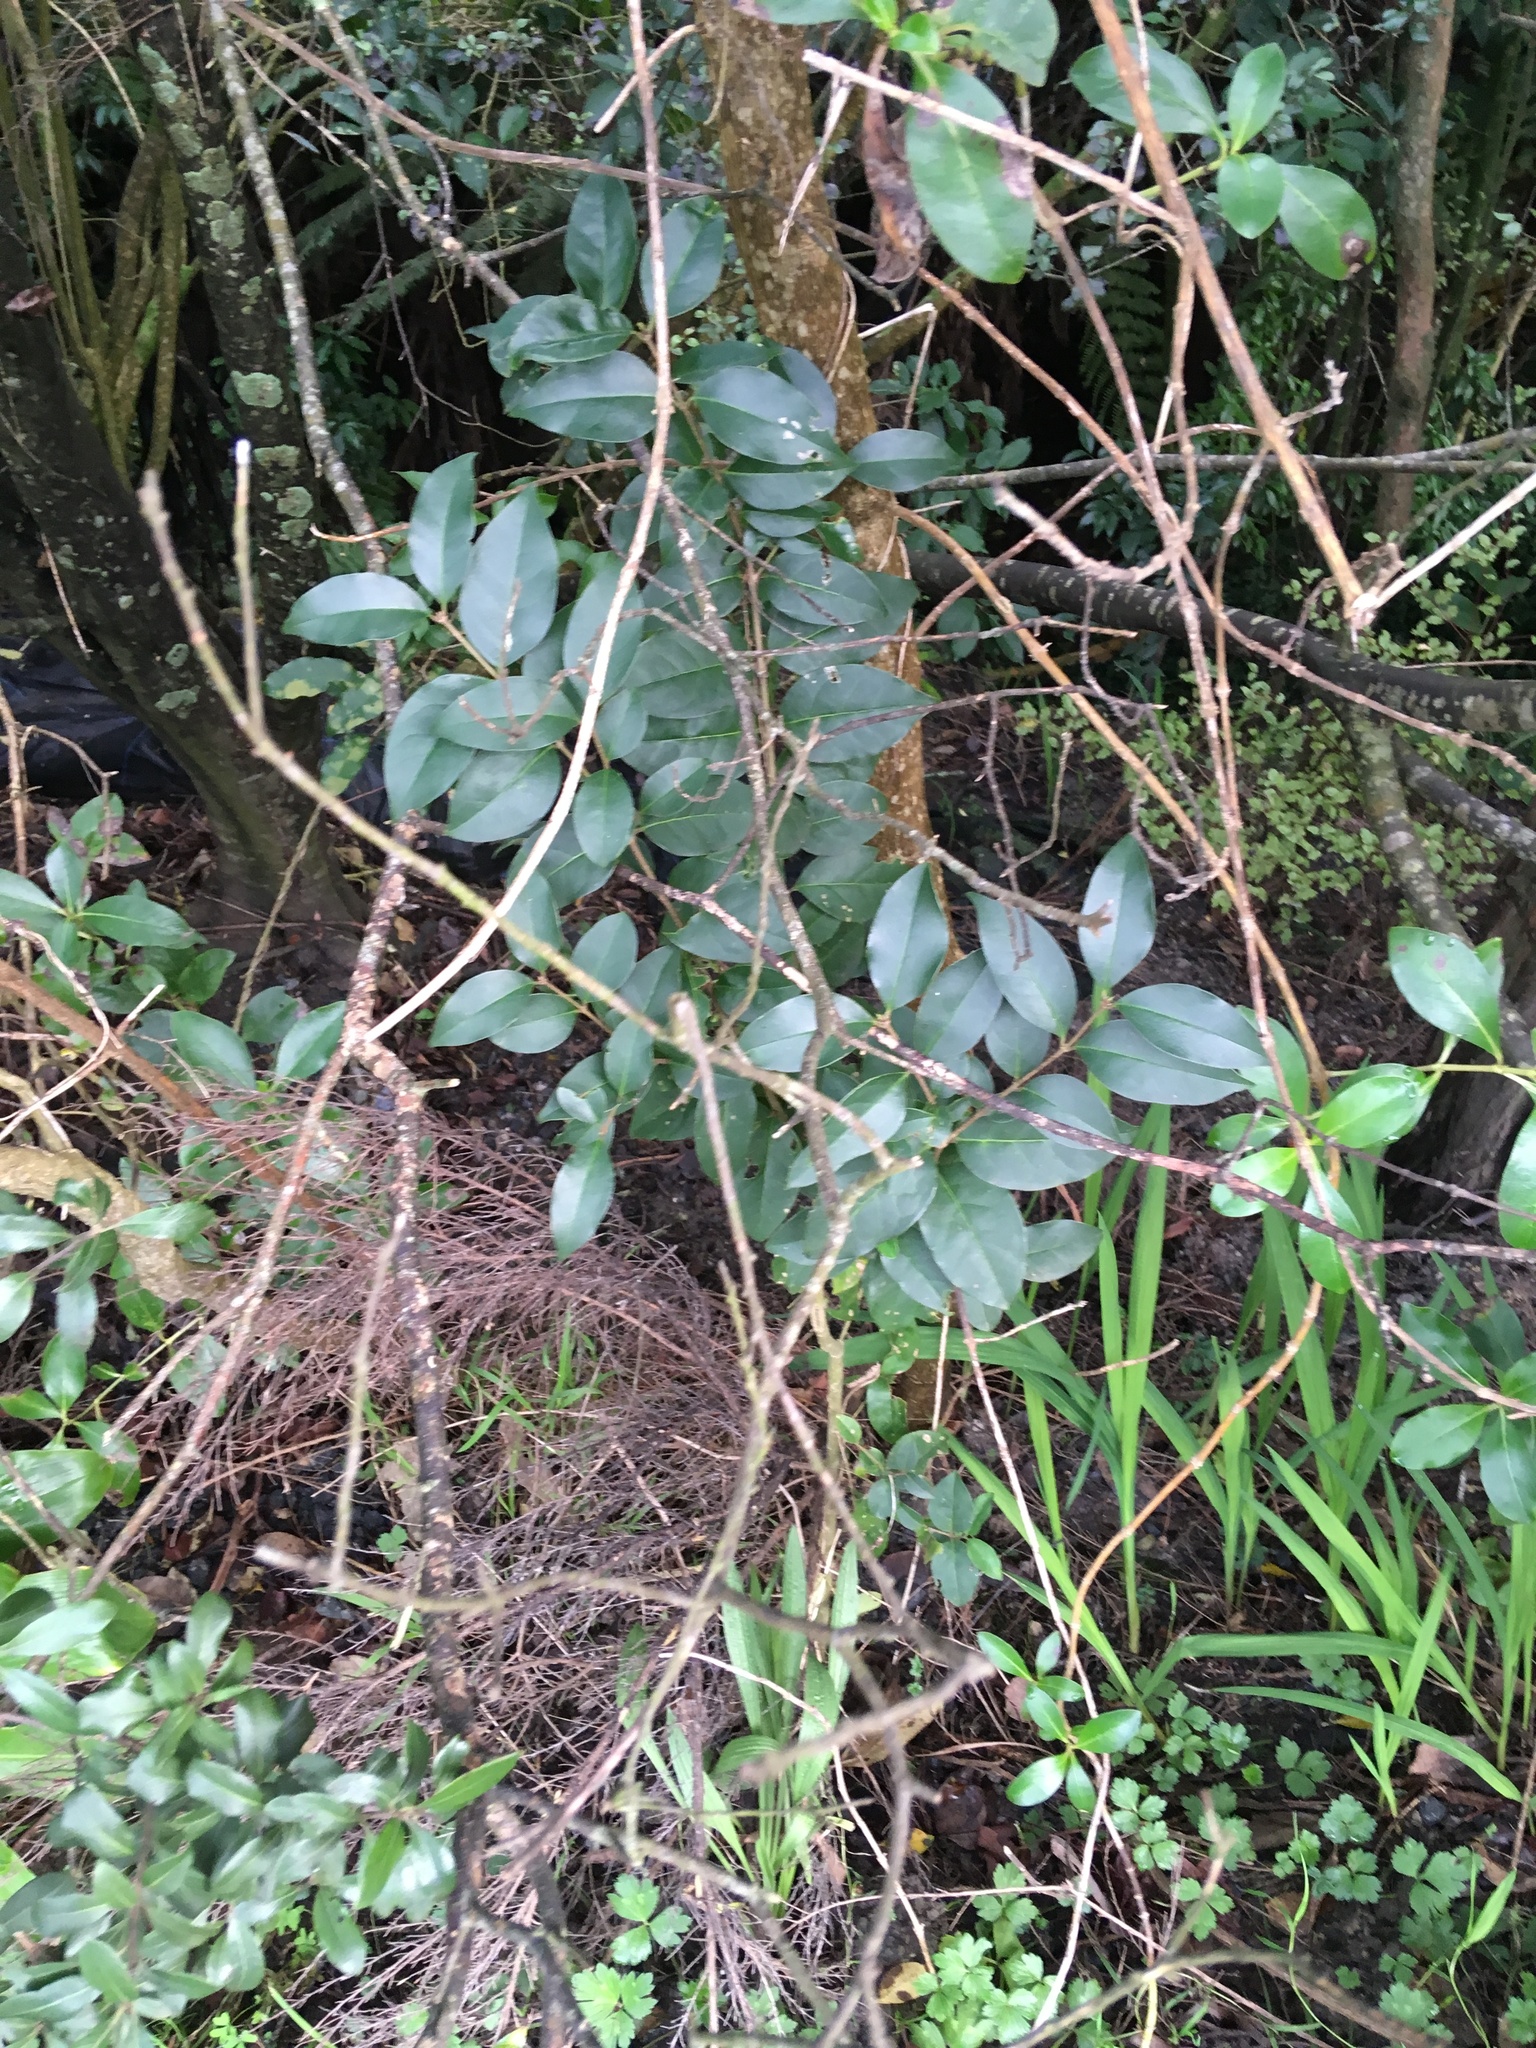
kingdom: Plantae
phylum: Tracheophyta
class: Magnoliopsida
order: Lamiales
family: Oleaceae
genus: Ligustrum
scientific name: Ligustrum lucidum
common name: Glossy privet
